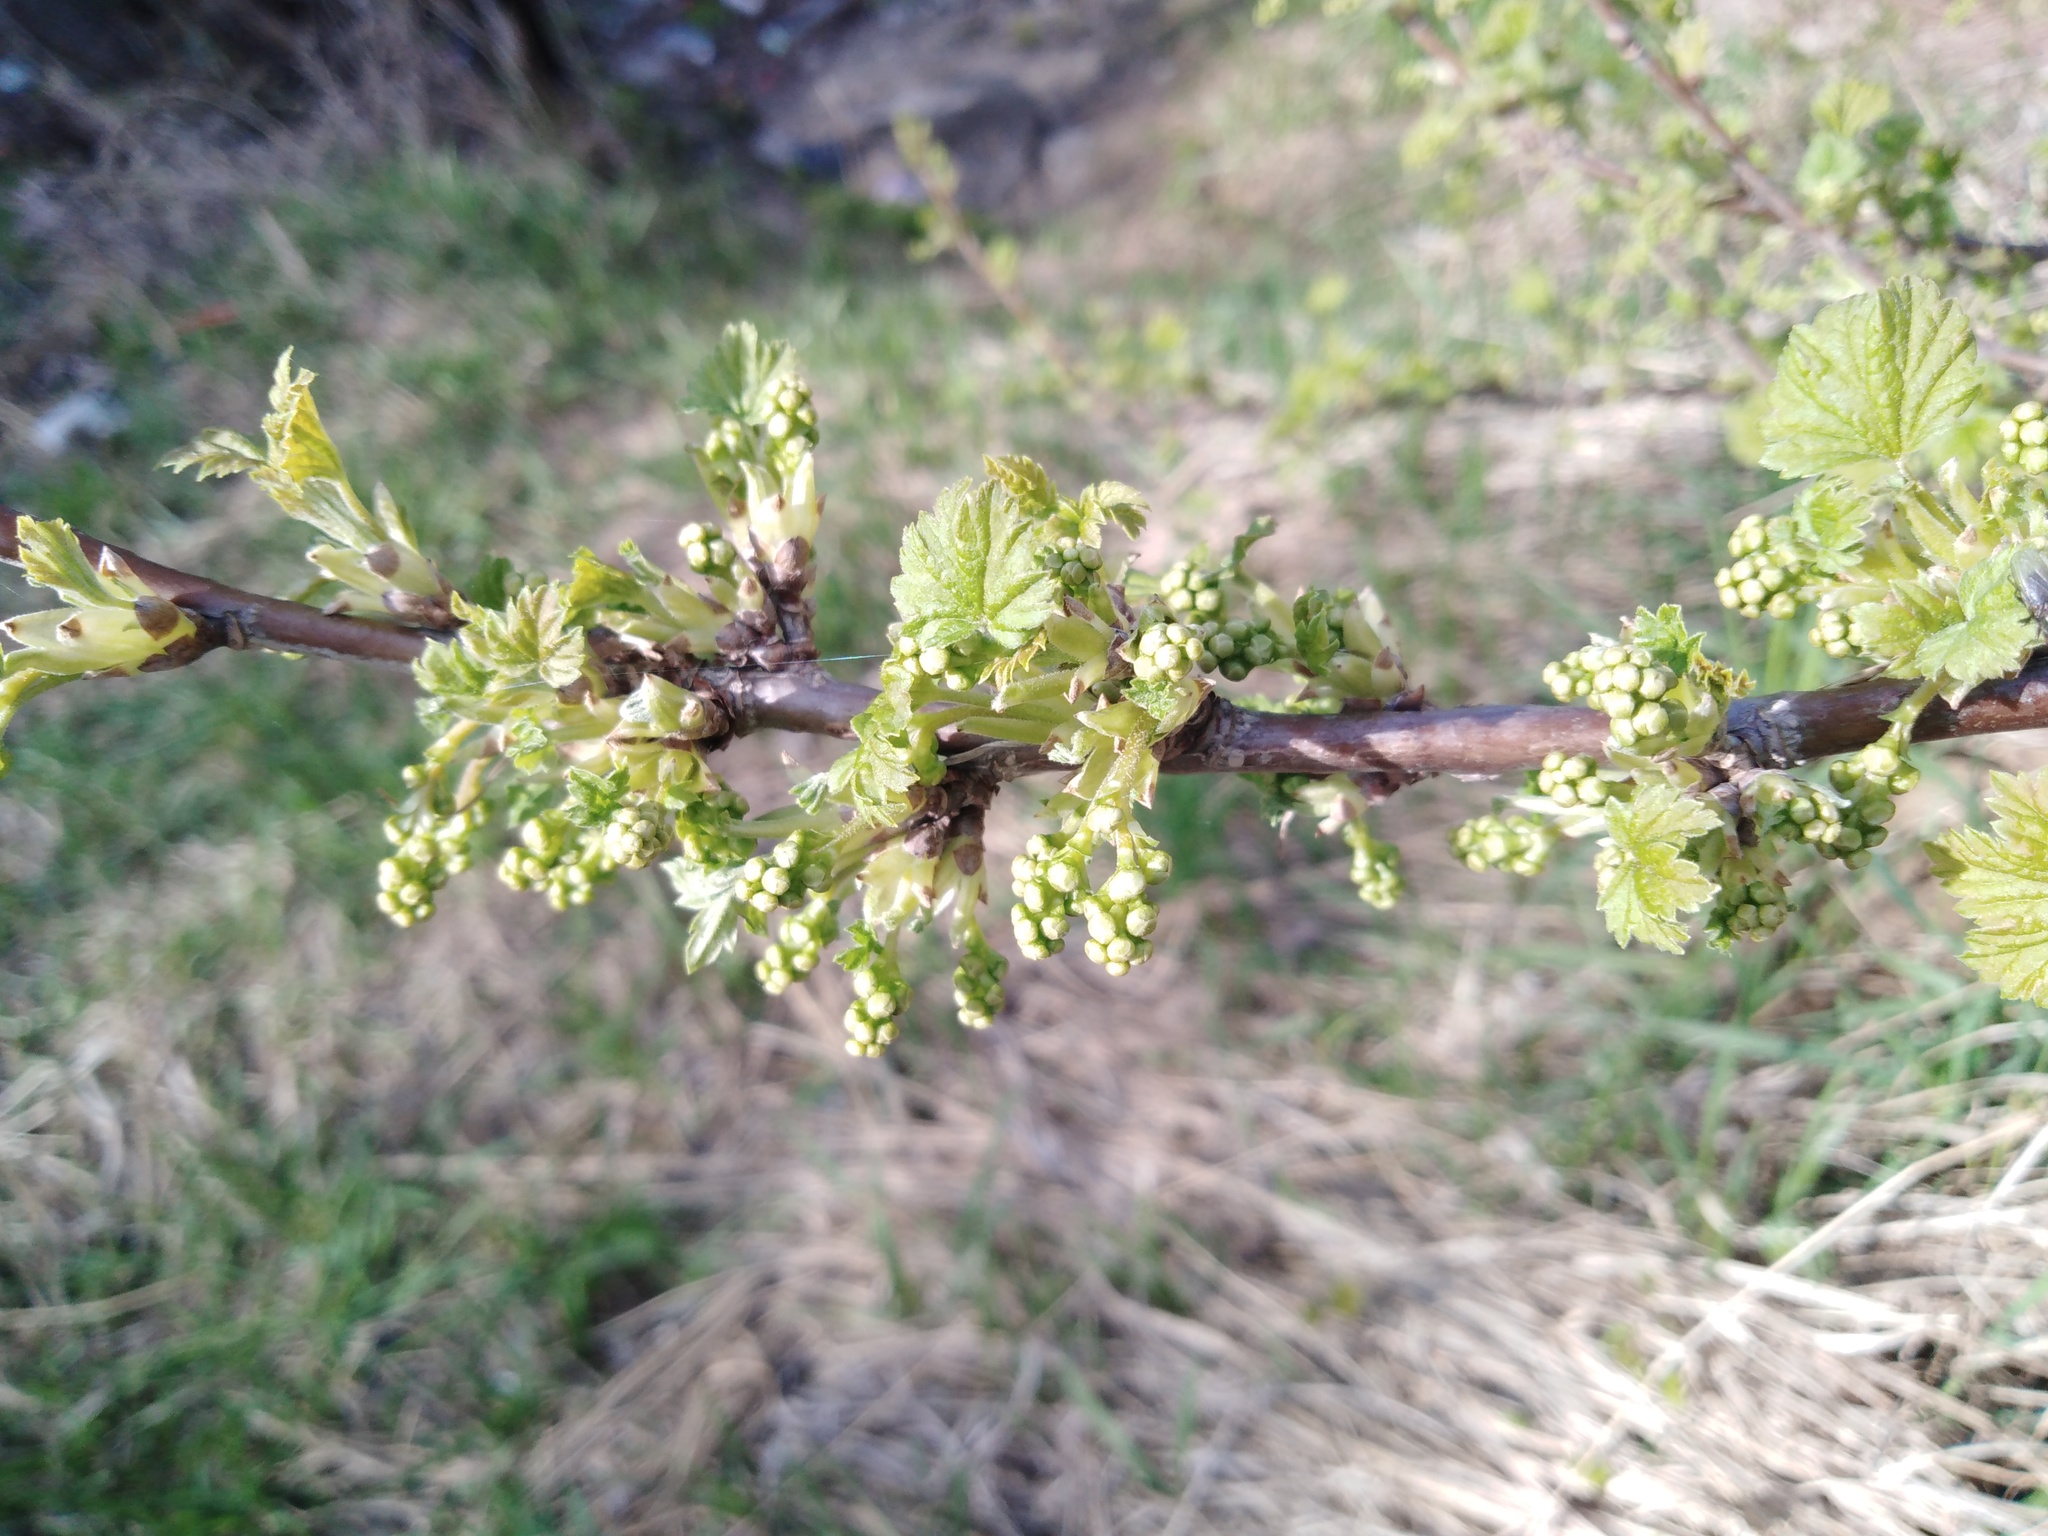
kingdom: Plantae
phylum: Tracheophyta
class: Magnoliopsida
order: Saxifragales
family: Grossulariaceae
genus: Ribes
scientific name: Ribes nigrum
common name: Black currant
